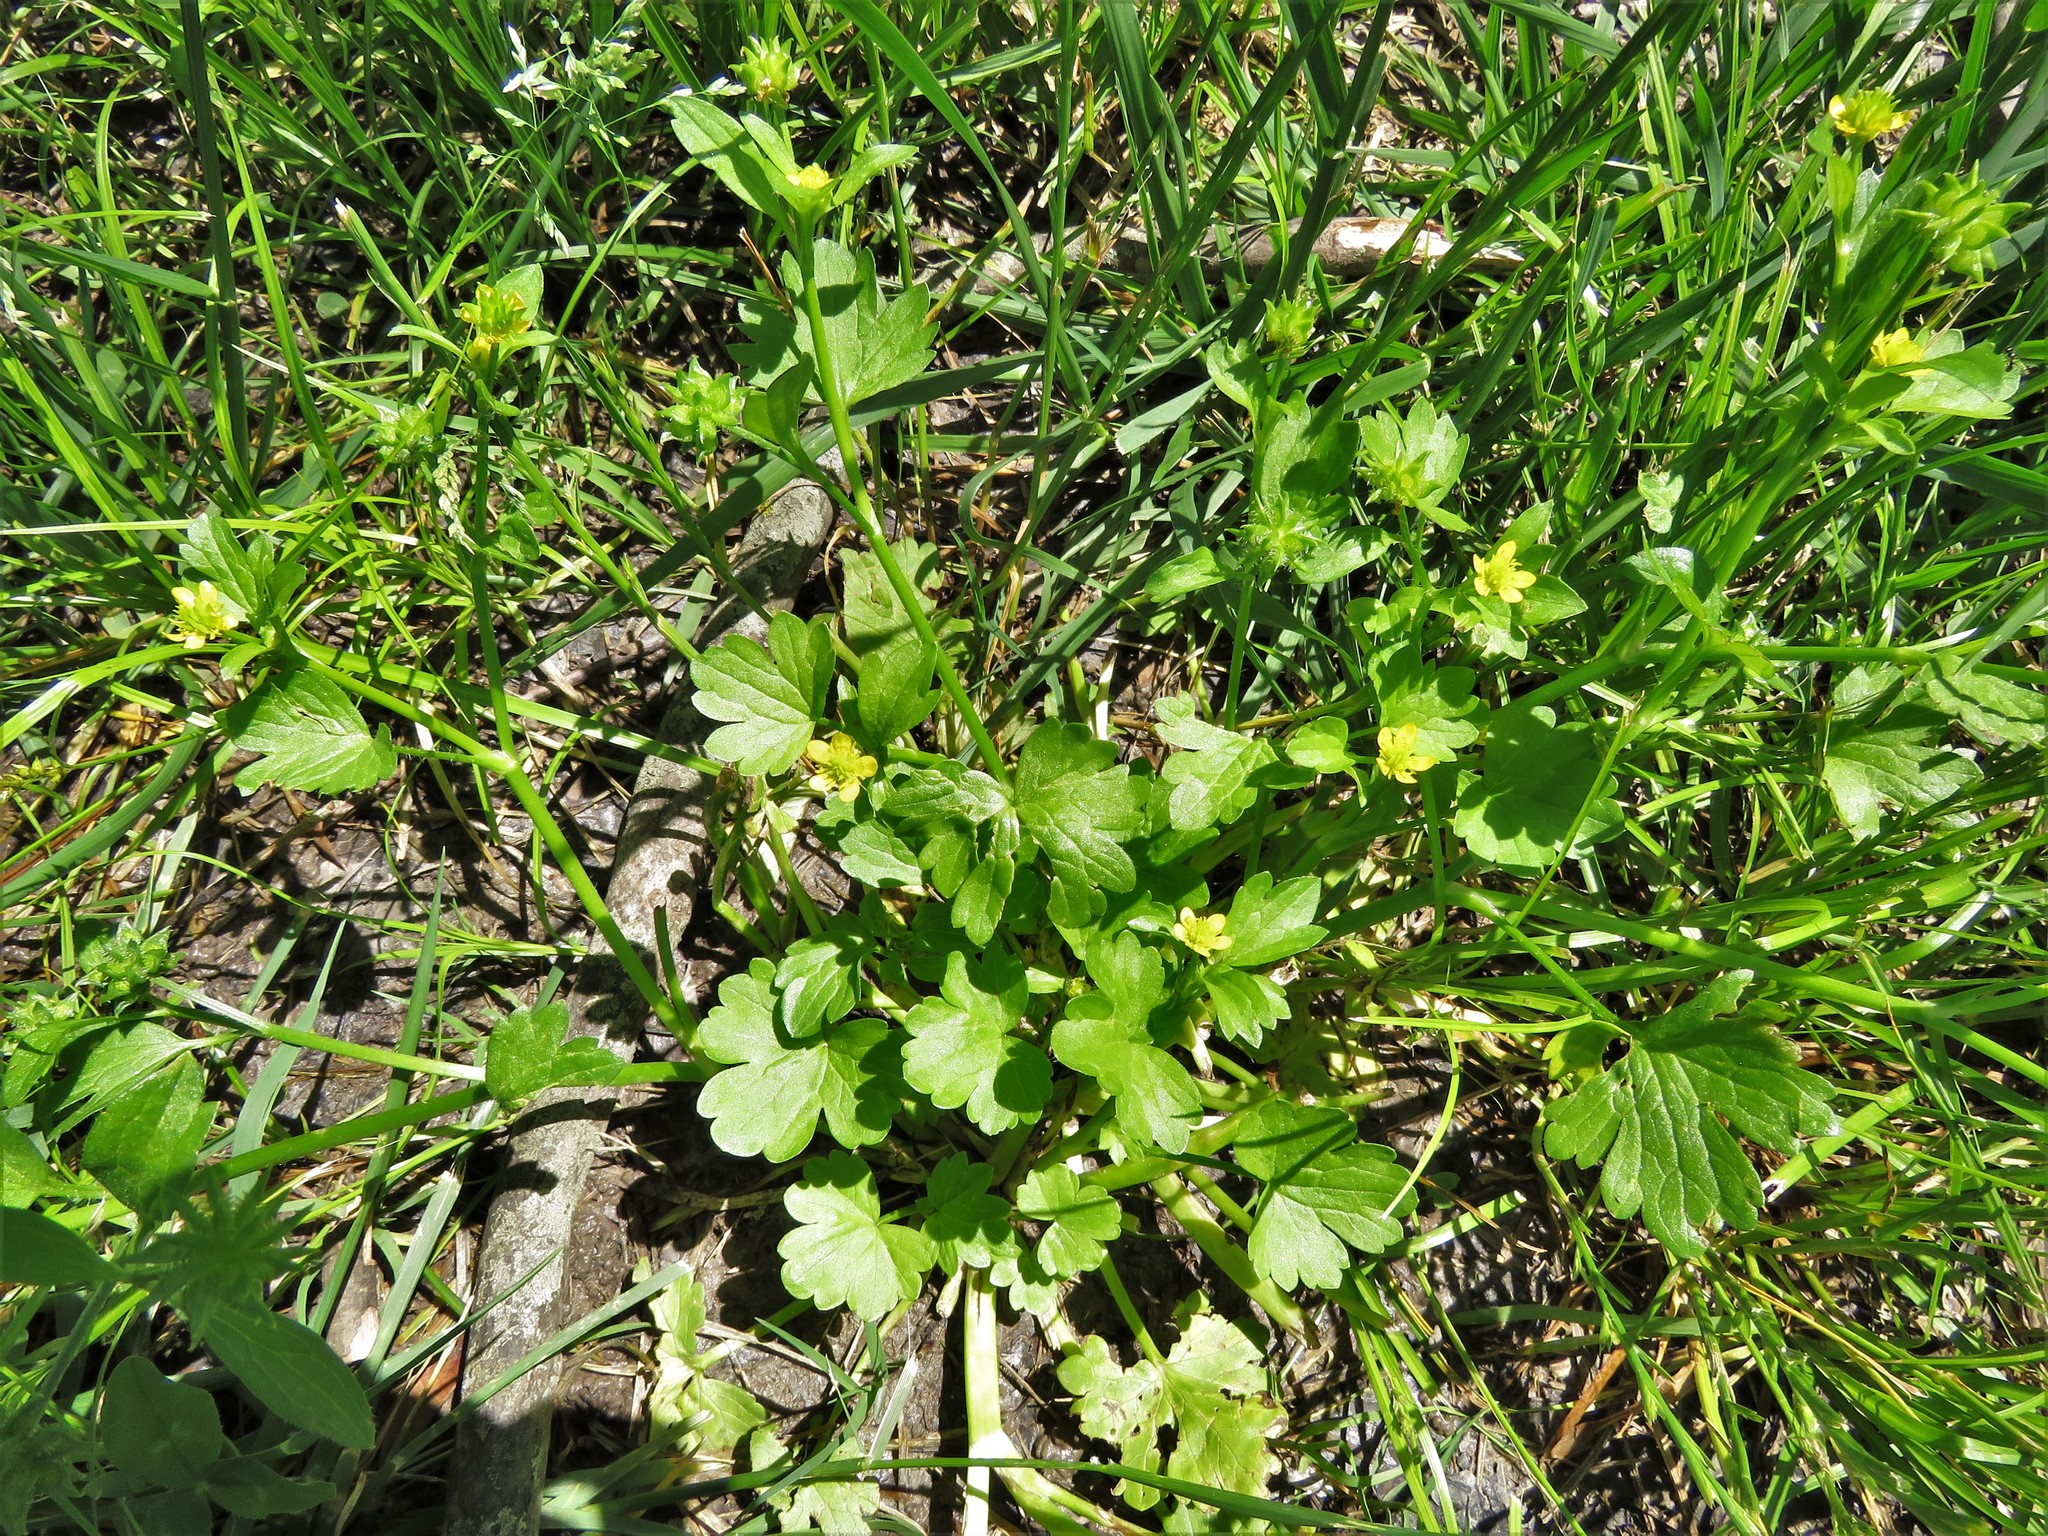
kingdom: Plantae
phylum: Tracheophyta
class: Magnoliopsida
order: Ranunculales
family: Ranunculaceae
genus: Ranunculus
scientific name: Ranunculus muricatus
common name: Rough-fruited buttercup
